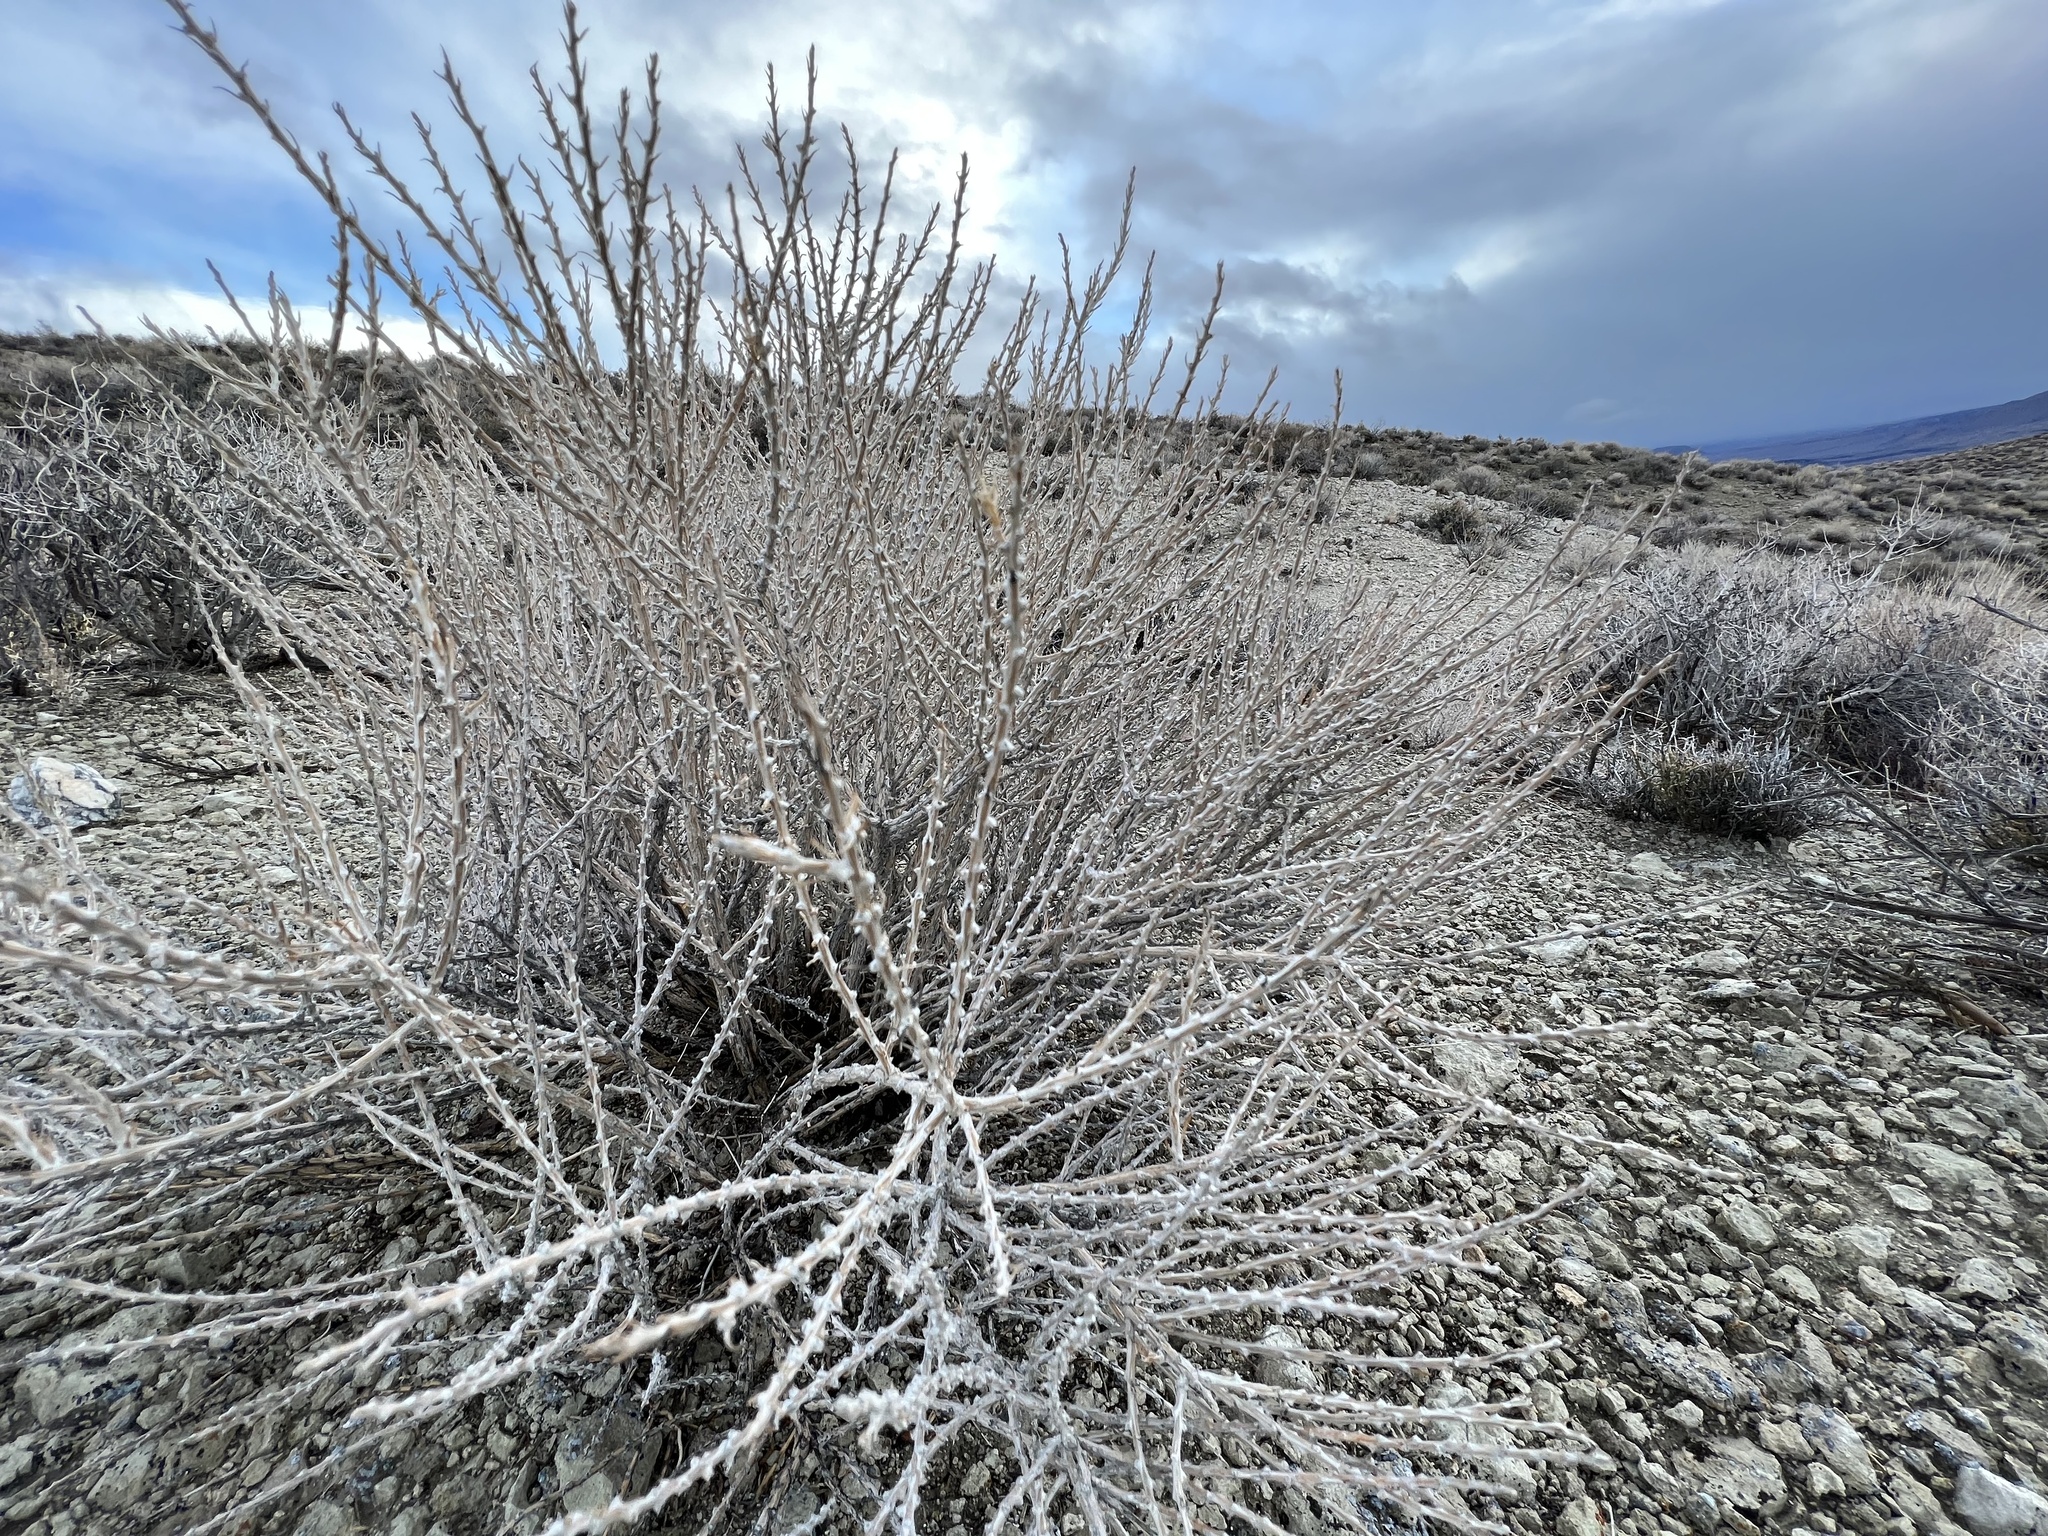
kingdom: Plantae
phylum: Tracheophyta
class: Magnoliopsida
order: Asterales
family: Asteraceae
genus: Tetradymia
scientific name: Tetradymia glabrata
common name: Smooth tetradymia
